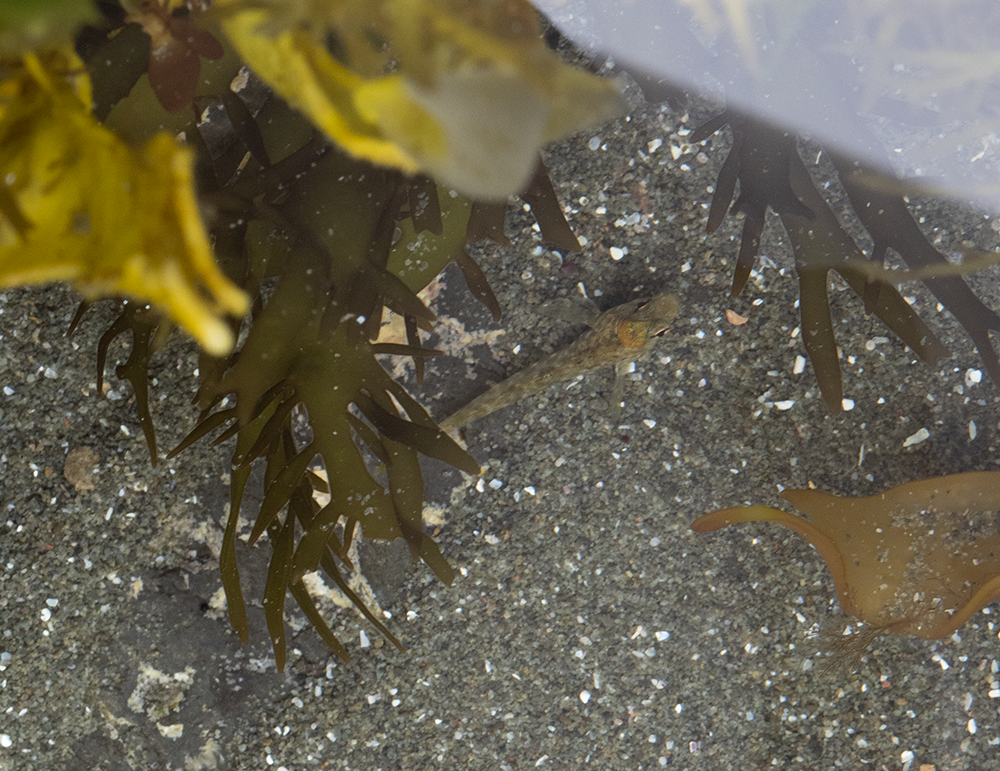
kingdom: Animalia
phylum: Chordata
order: Perciformes
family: Tripterygiidae
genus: Bellapiscis
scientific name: Bellapiscis medius
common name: Twister
